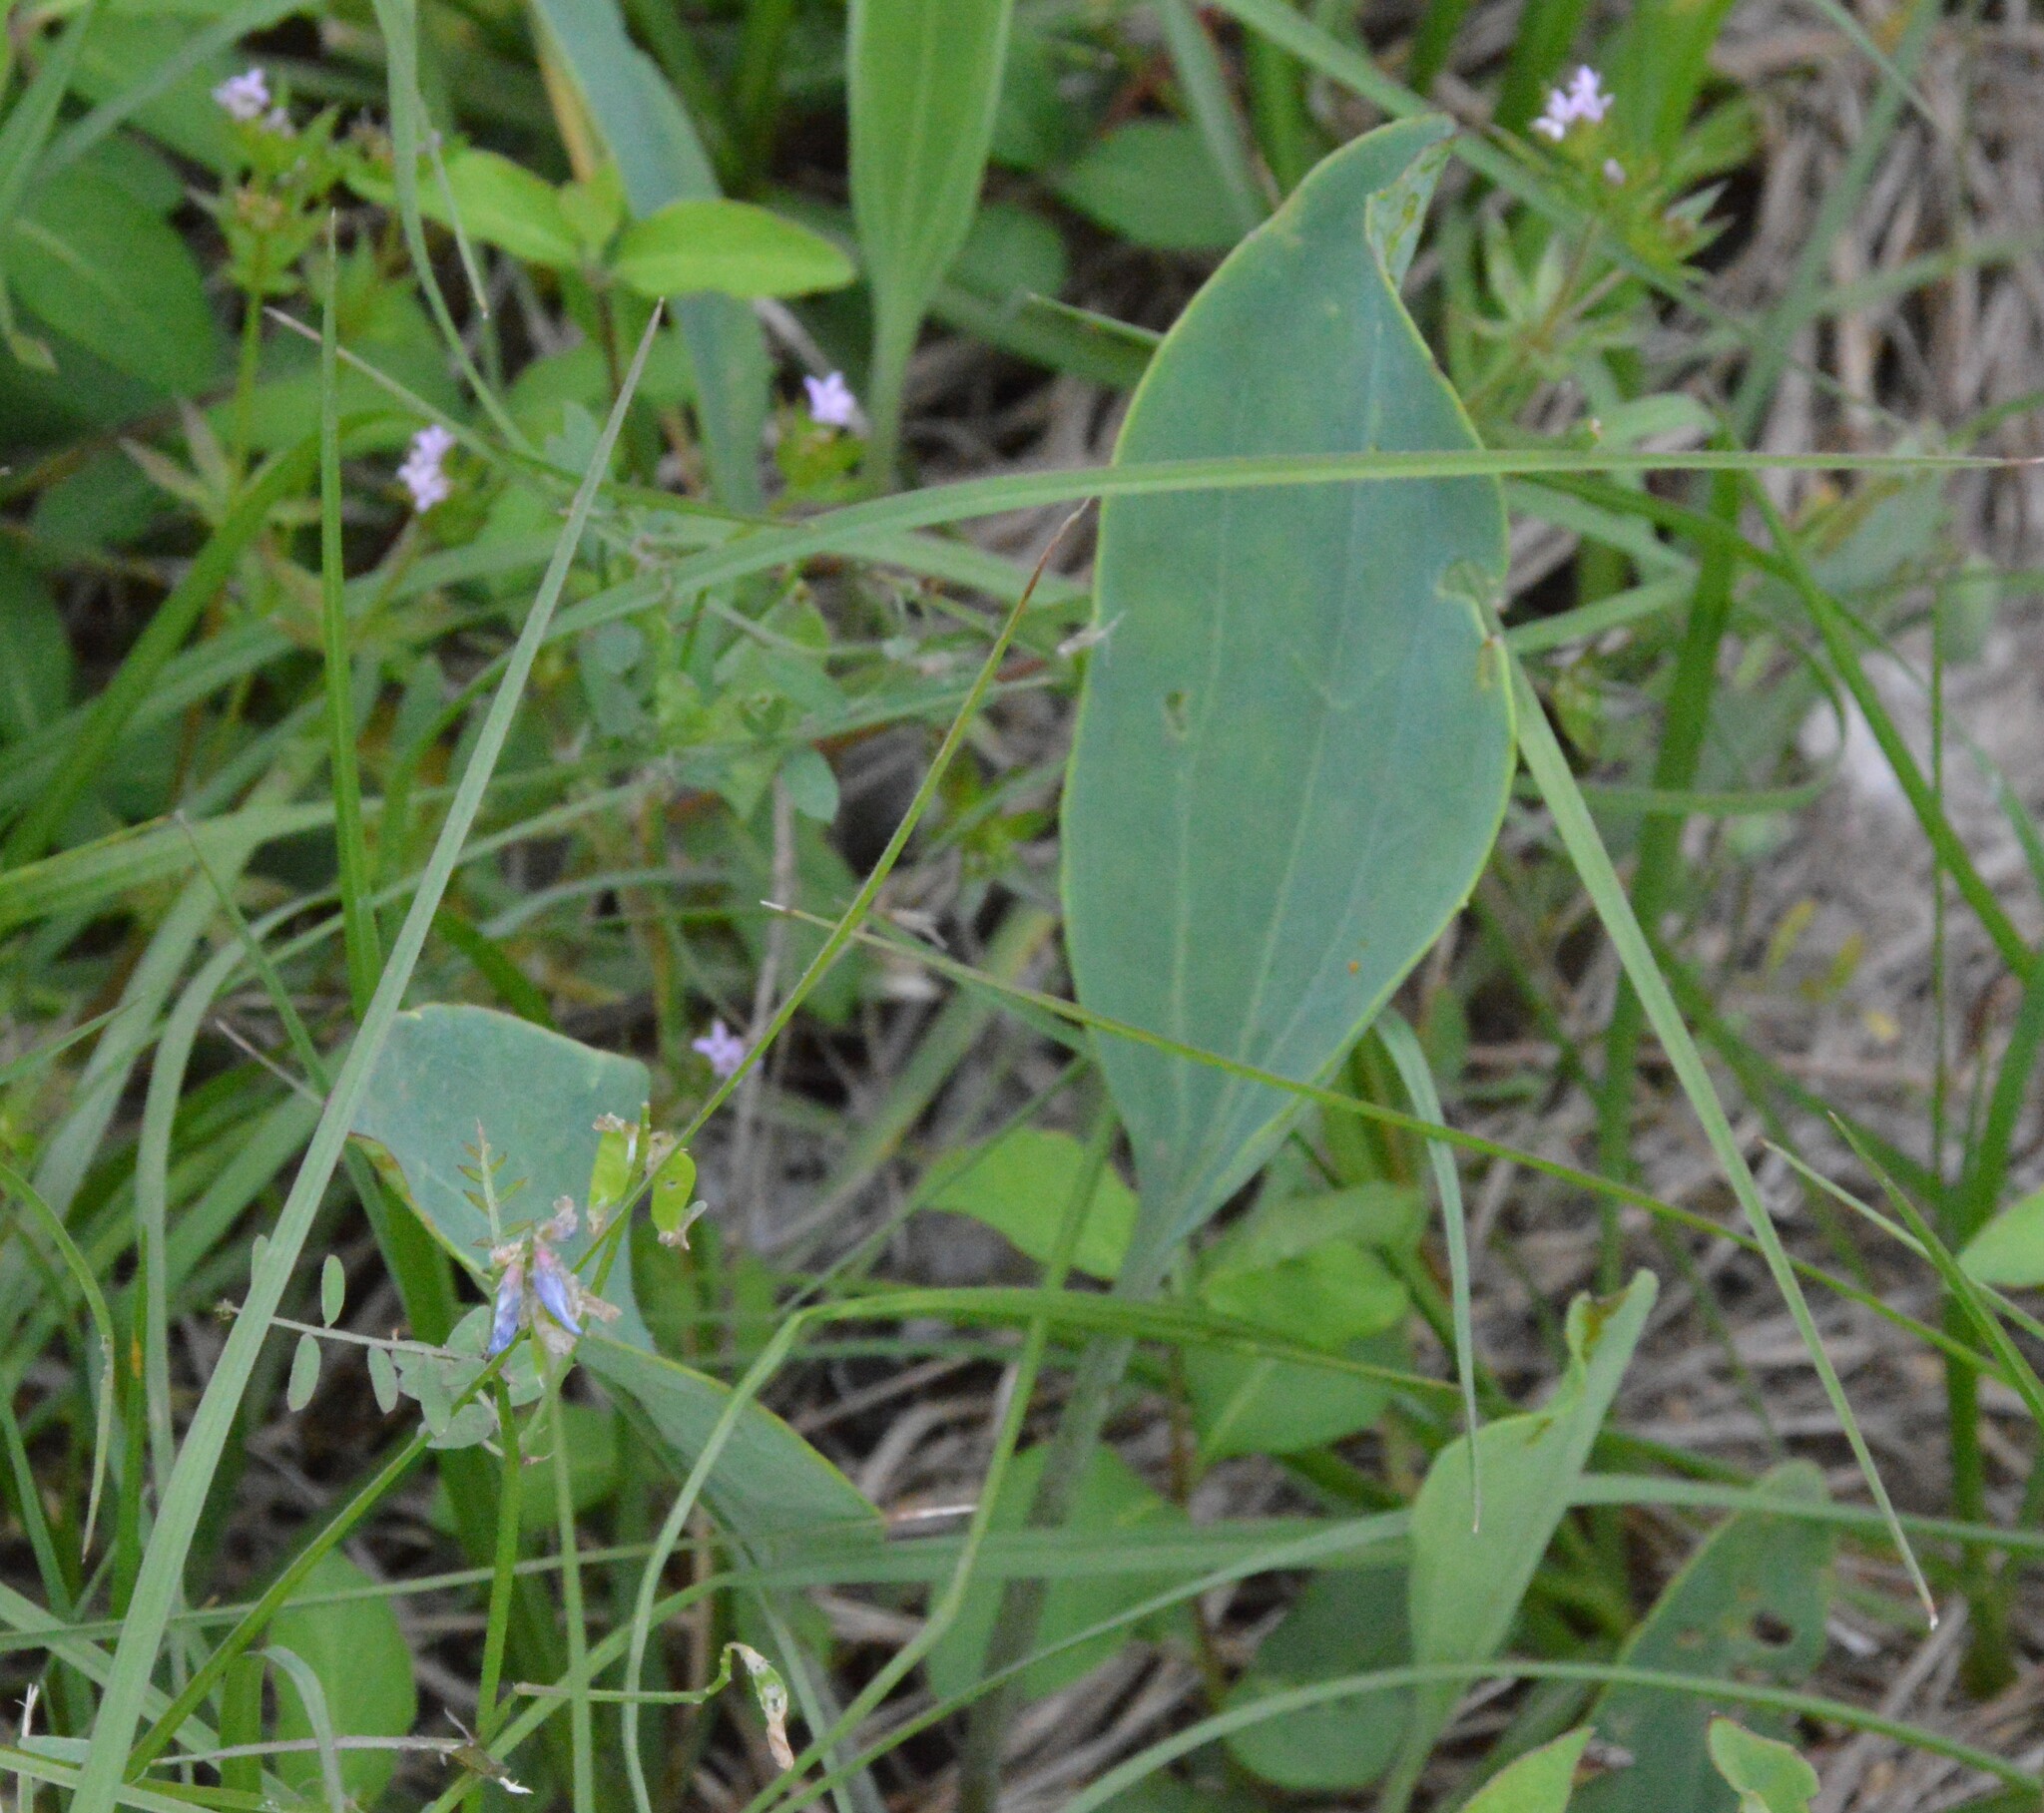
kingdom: Plantae
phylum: Tracheophyta
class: Magnoliopsida
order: Asterales
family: Asteraceae
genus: Arnoglossum
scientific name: Arnoglossum ovatum
